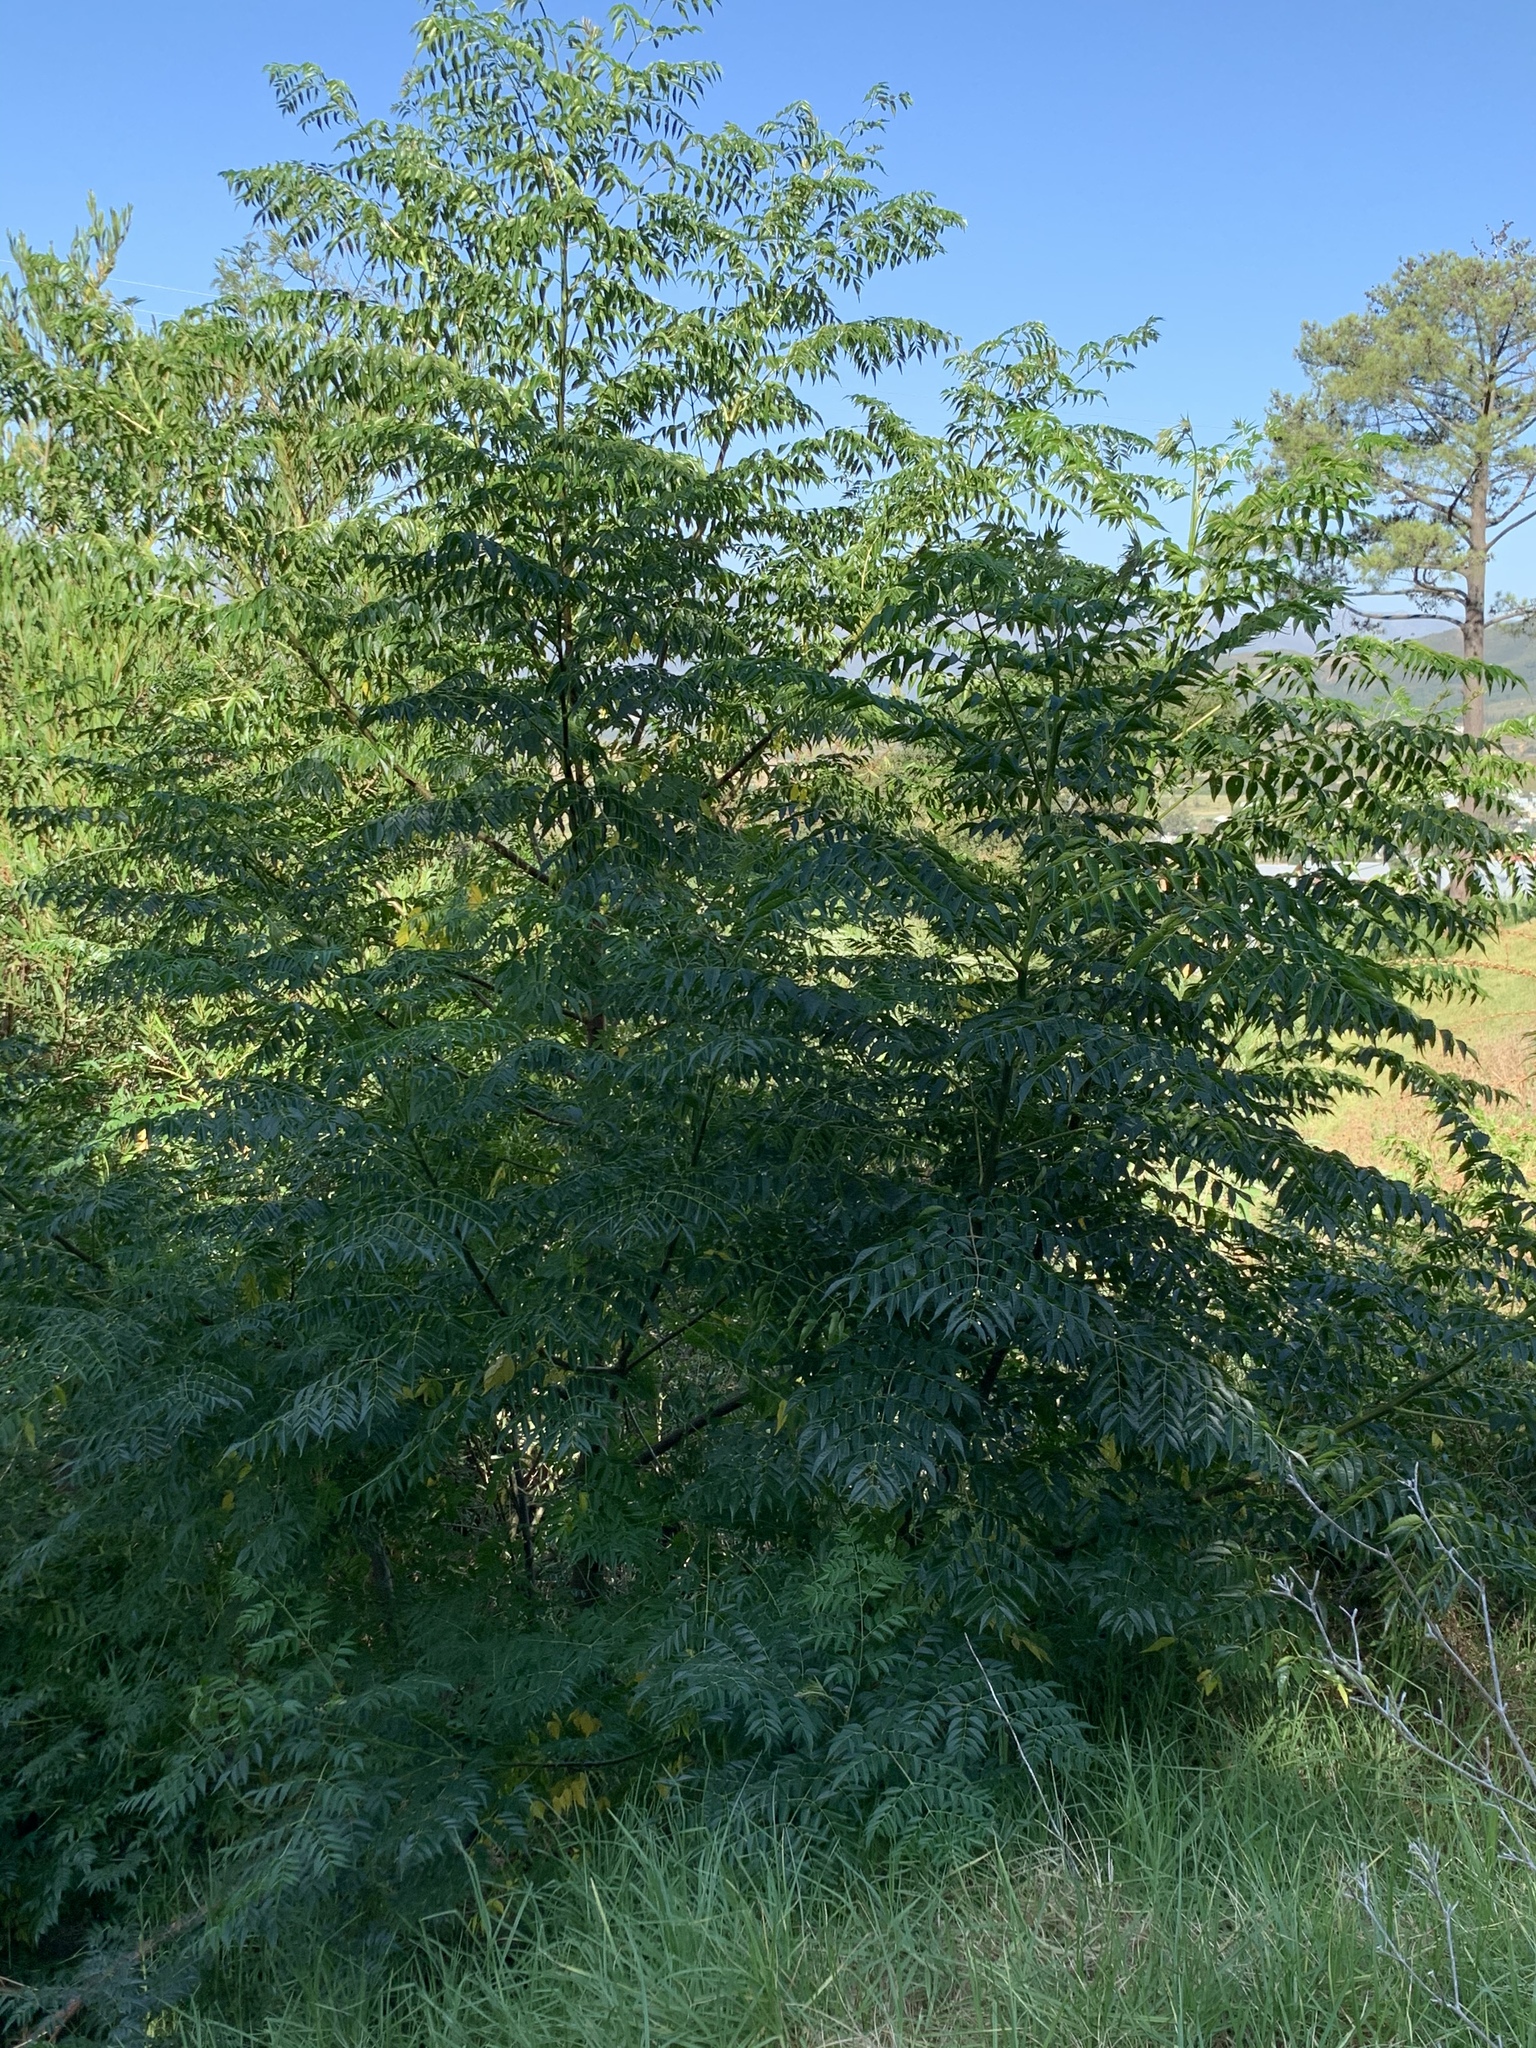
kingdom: Plantae
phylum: Tracheophyta
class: Magnoliopsida
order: Sapindales
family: Meliaceae
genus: Melia
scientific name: Melia azedarach
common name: Chinaberrytree
